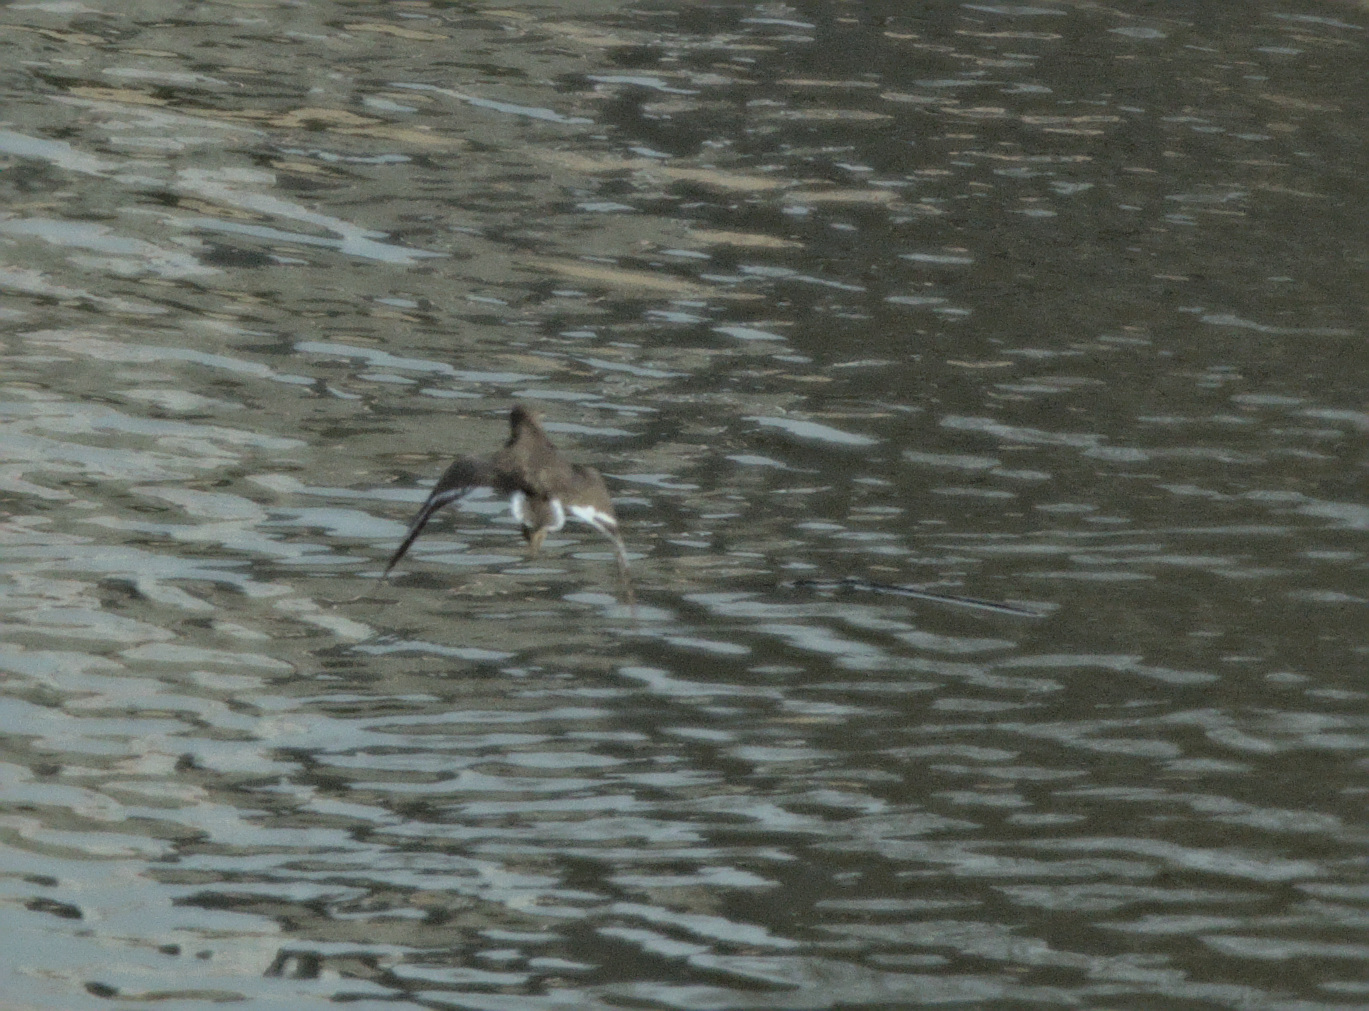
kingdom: Animalia
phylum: Chordata
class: Aves
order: Charadriiformes
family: Scolopacidae
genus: Actitis
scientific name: Actitis hypoleucos
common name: Common sandpiper
